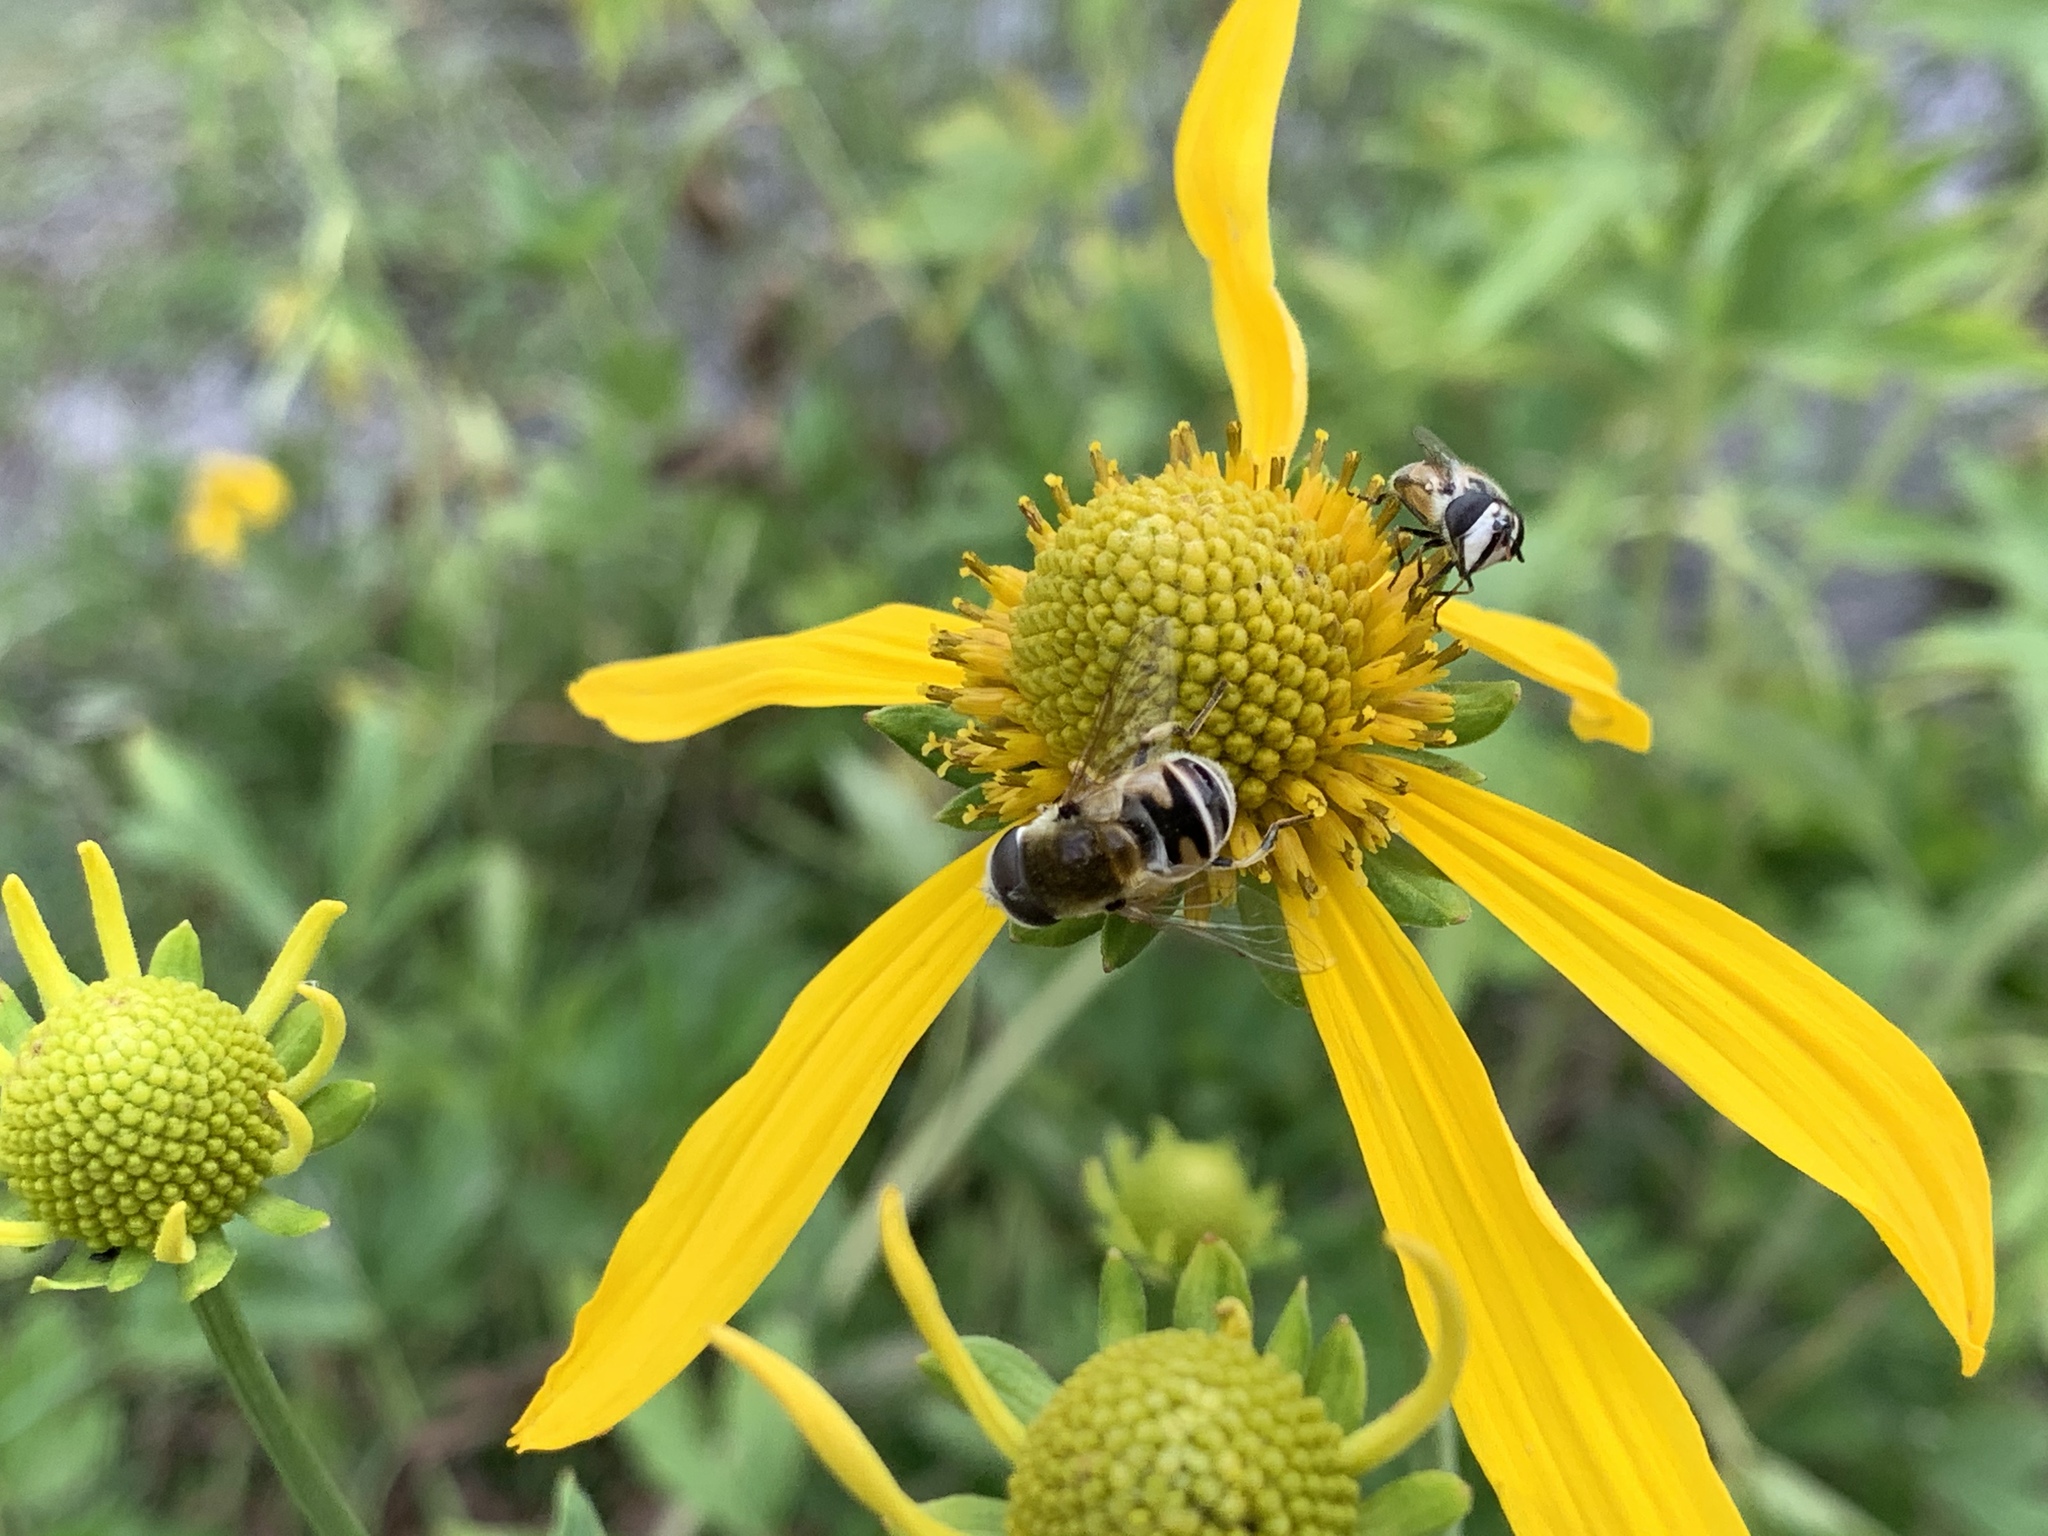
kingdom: Animalia
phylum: Arthropoda
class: Insecta
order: Diptera
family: Syrphidae
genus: Eristalis
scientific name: Eristalis stipator
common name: Yellow-shouldered drone fly
